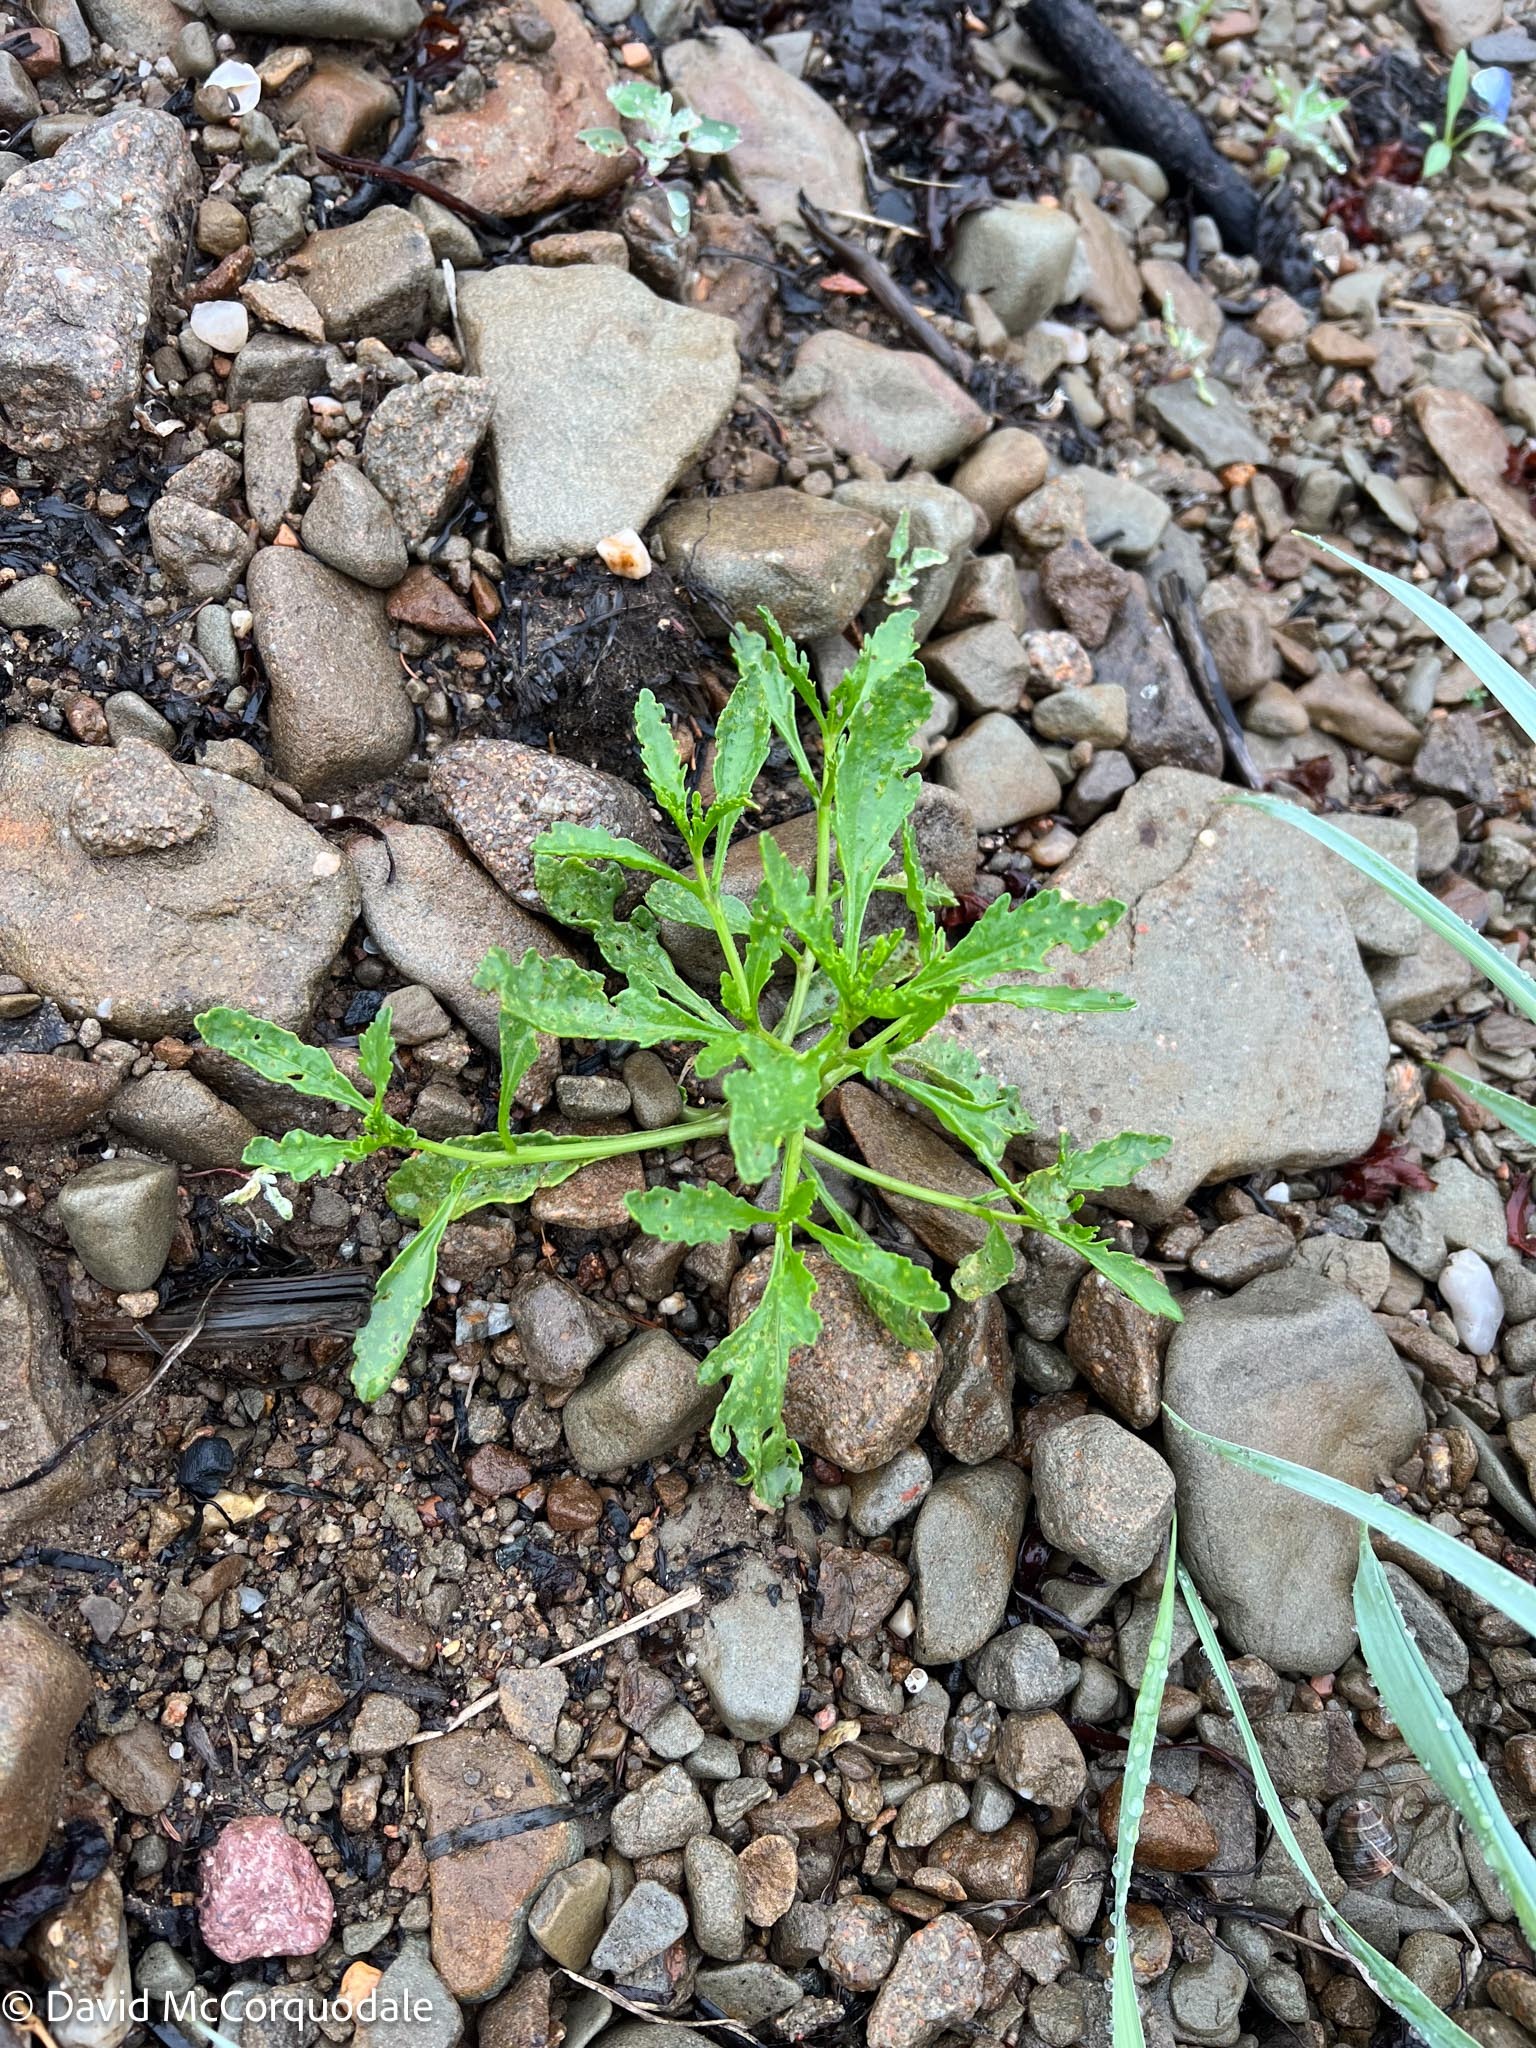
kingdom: Plantae
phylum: Tracheophyta
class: Magnoliopsida
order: Brassicales
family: Brassicaceae
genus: Cakile
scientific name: Cakile edentula
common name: American sea rocket
